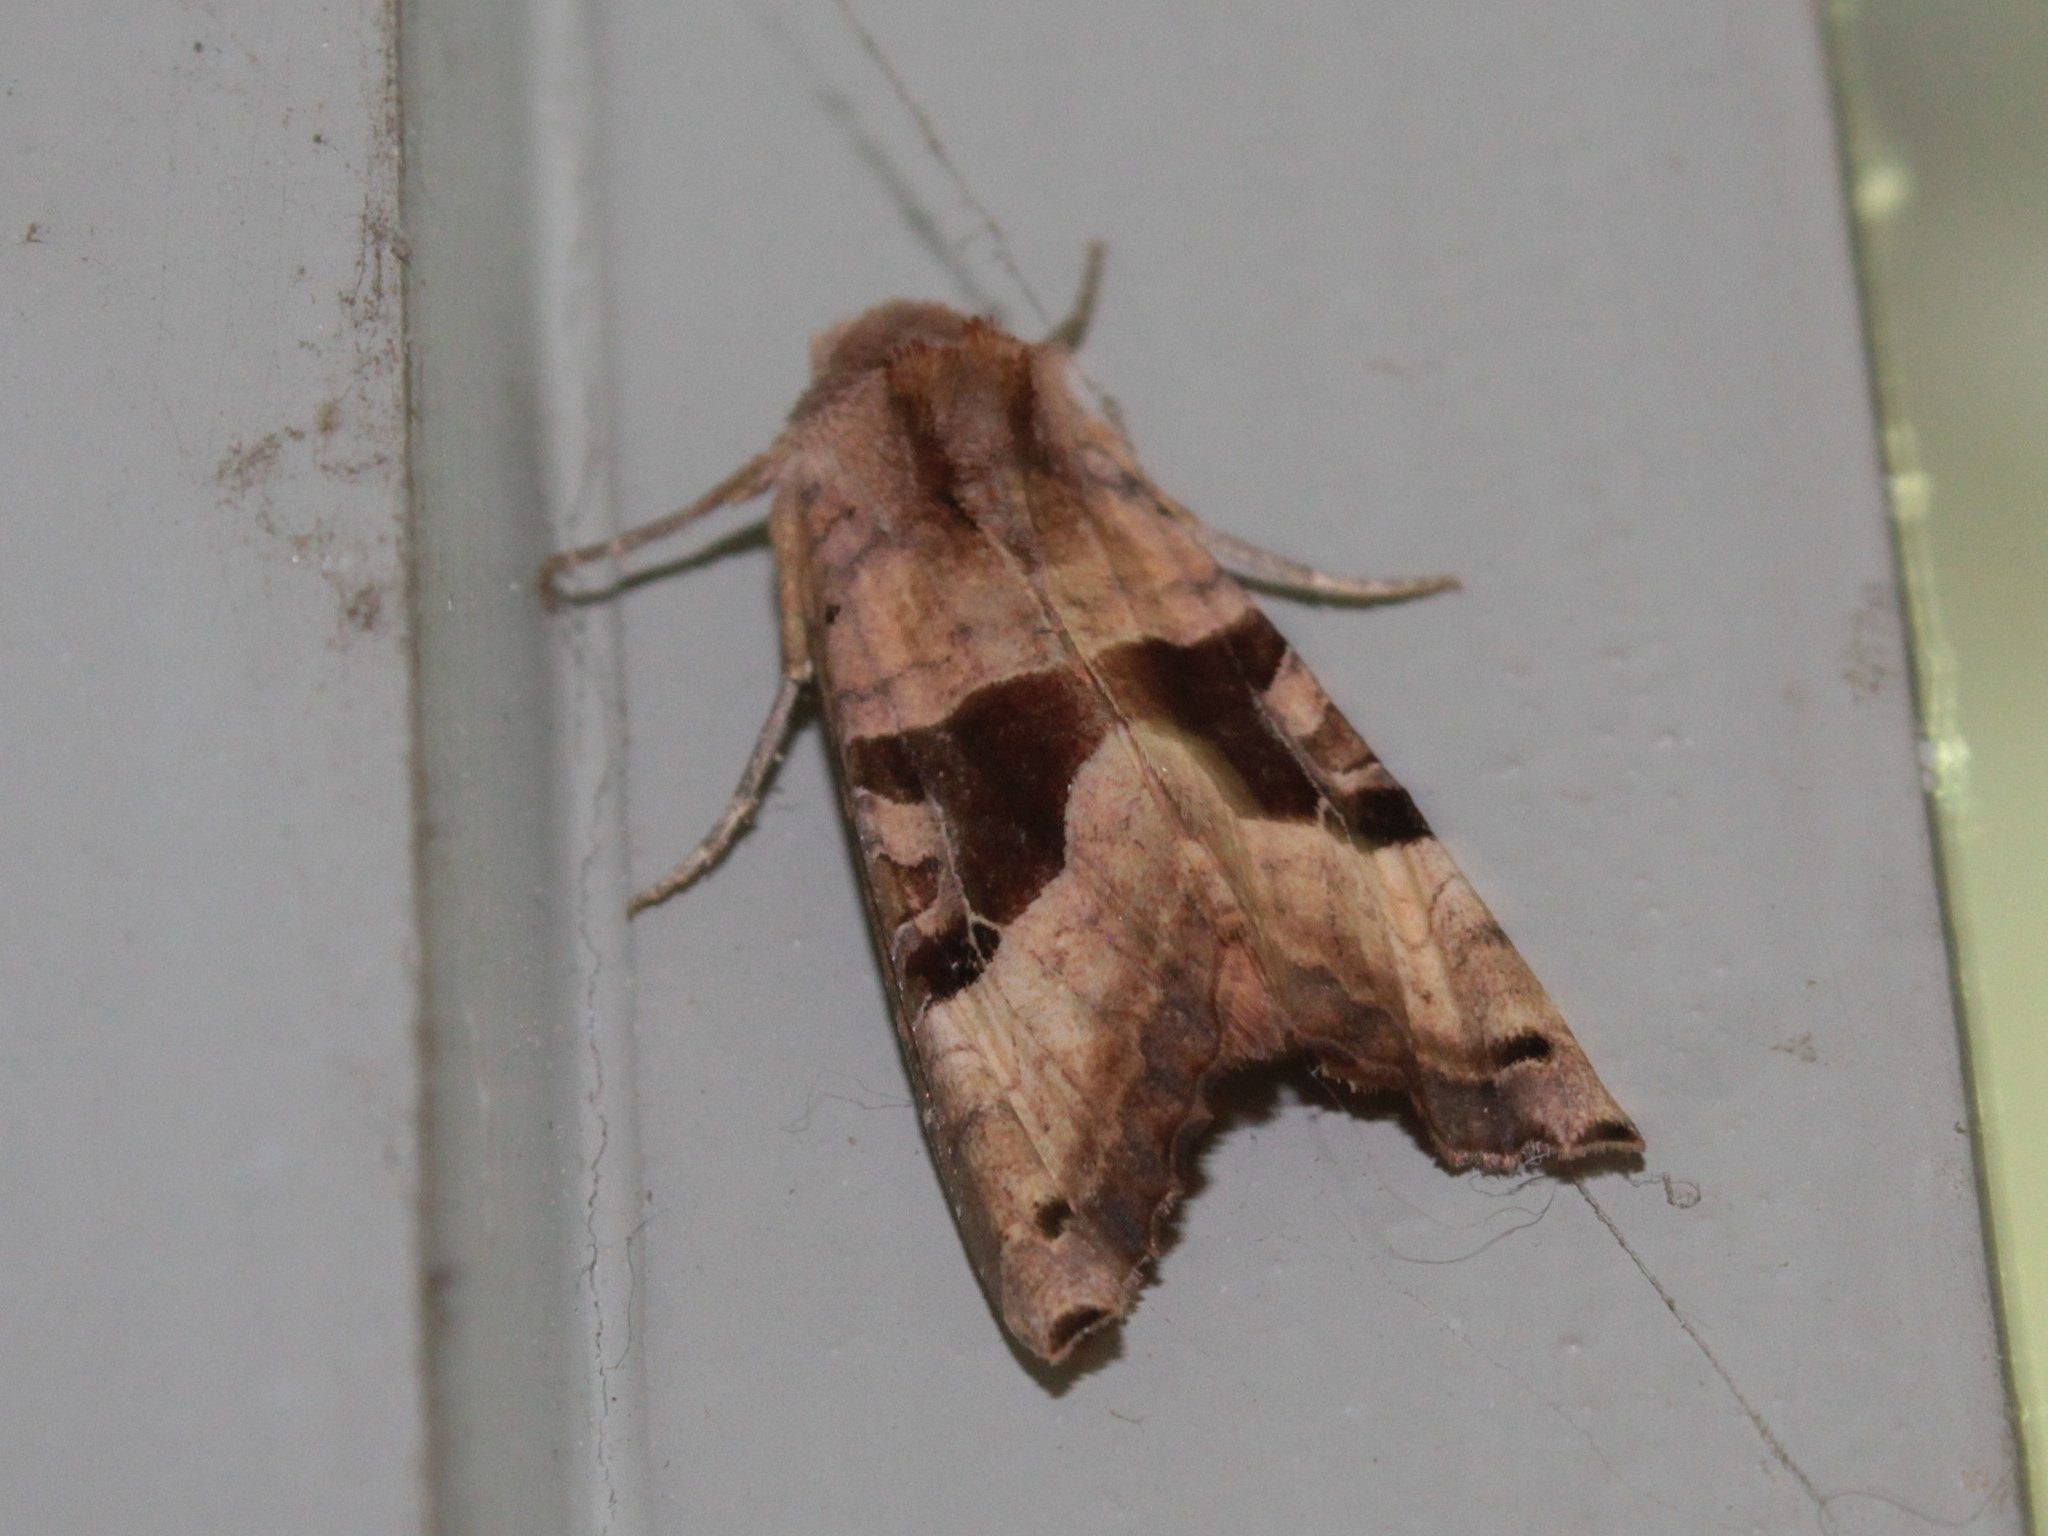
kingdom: Animalia
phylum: Arthropoda
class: Insecta
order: Lepidoptera
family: Noctuidae
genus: Phlogophora
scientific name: Phlogophora periculosa
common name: Brown angle shades
